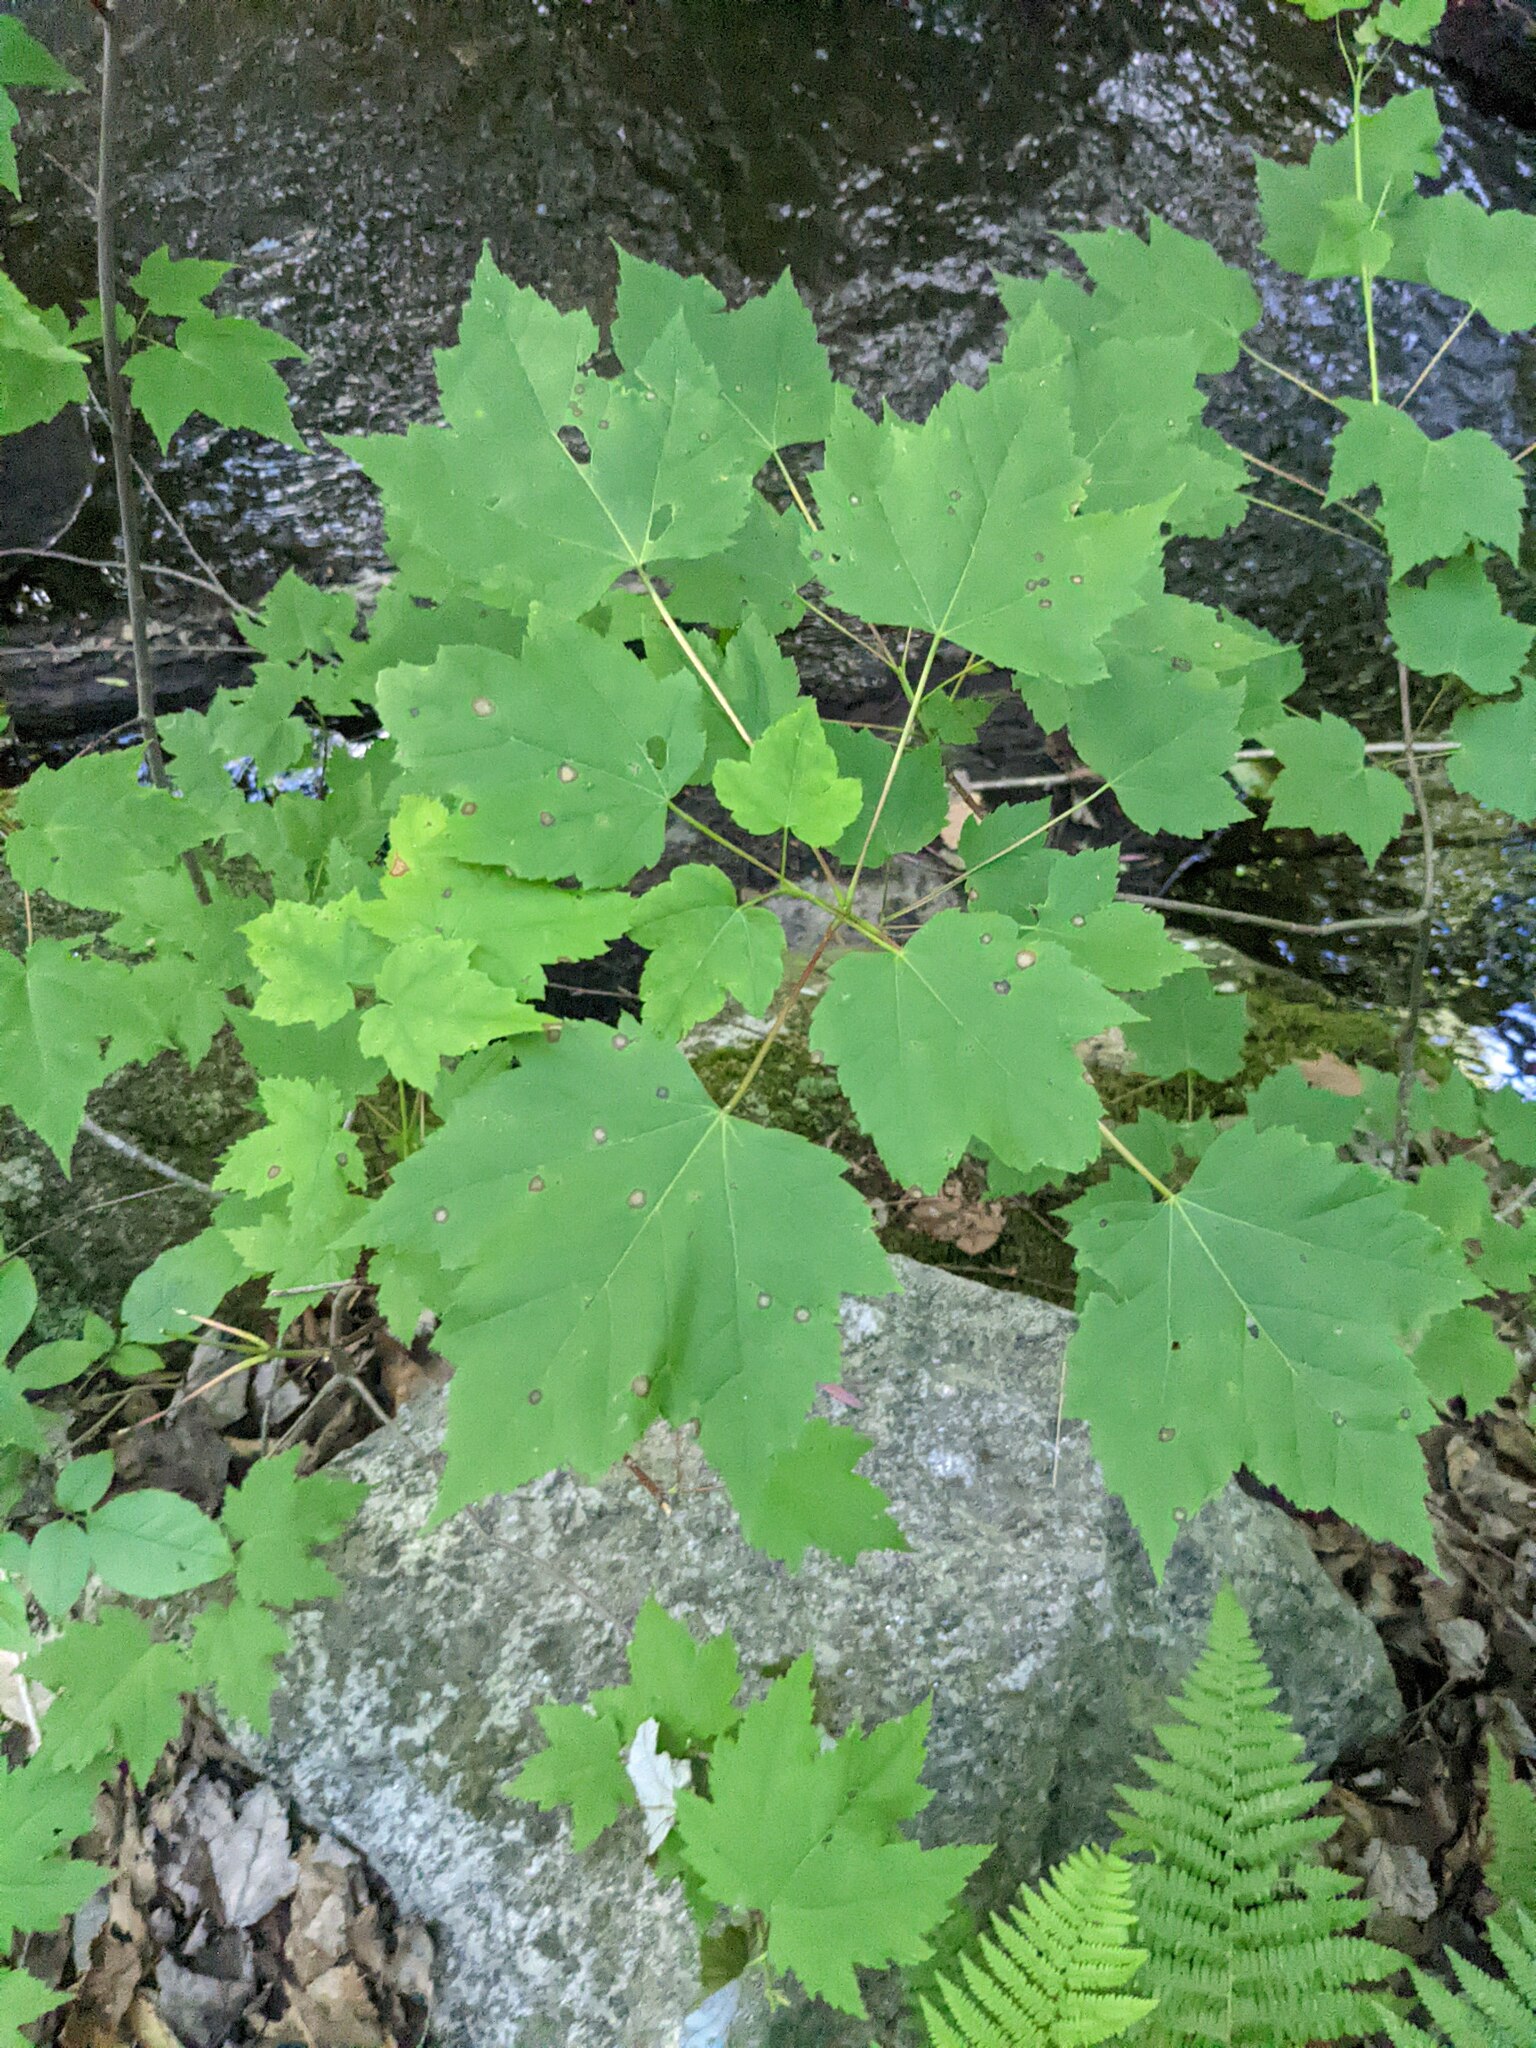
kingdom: Plantae
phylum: Tracheophyta
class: Magnoliopsida
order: Sapindales
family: Sapindaceae
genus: Acer
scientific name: Acer rubrum
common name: Red maple
